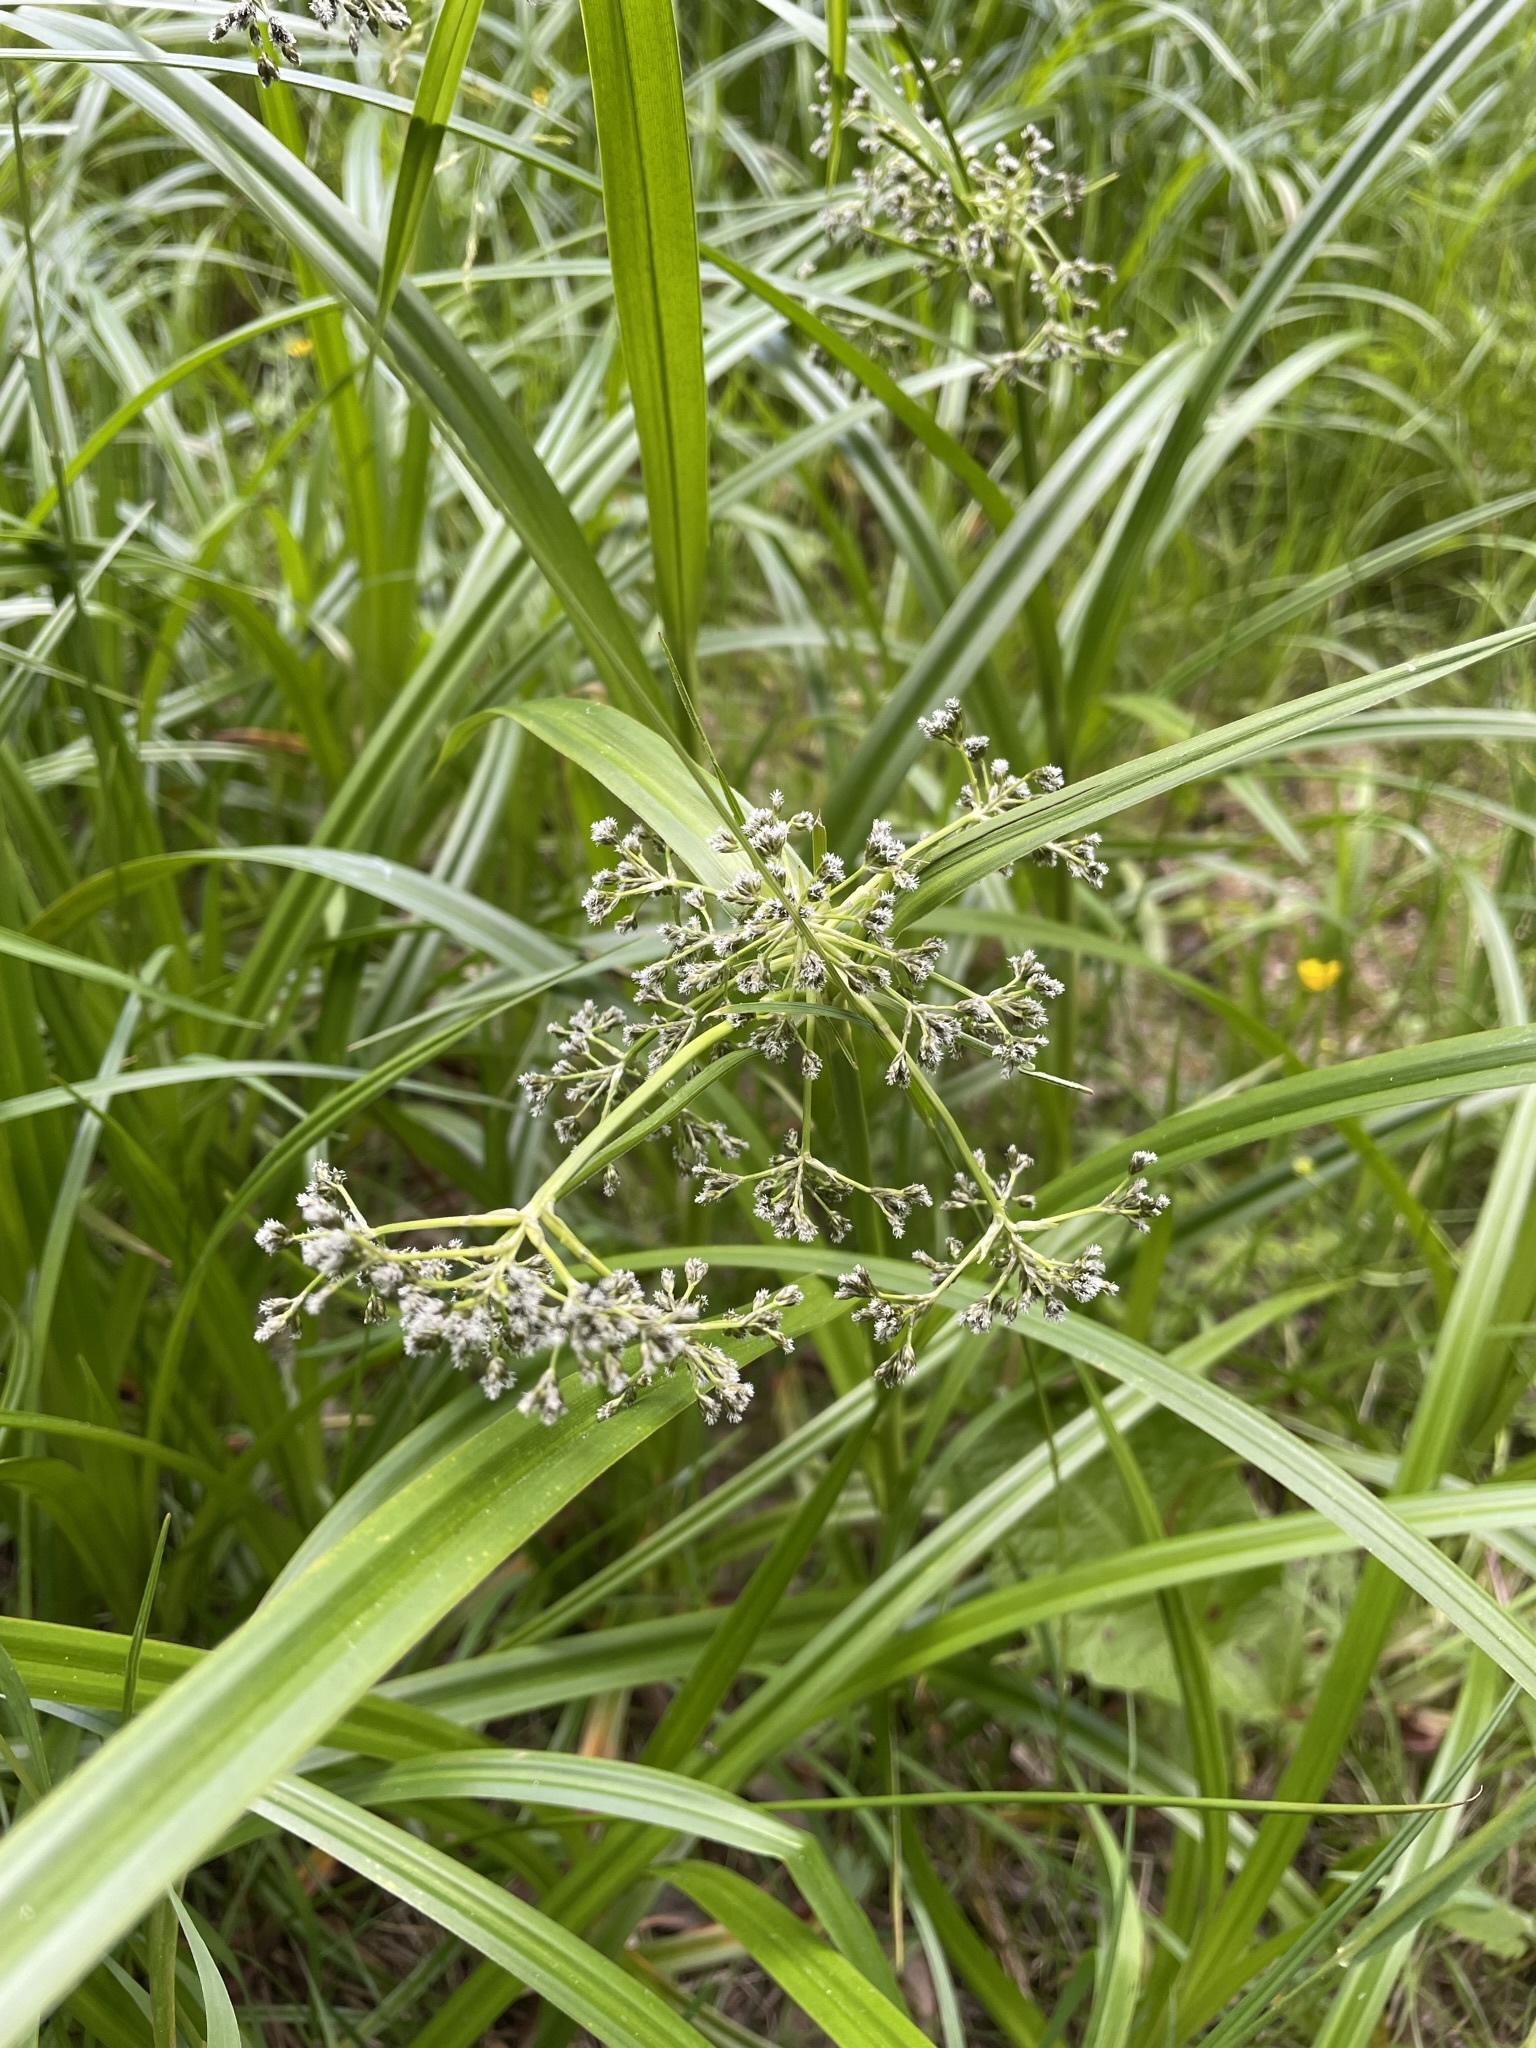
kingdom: Plantae
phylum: Tracheophyta
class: Liliopsida
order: Poales
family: Cyperaceae
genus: Scirpus
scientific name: Scirpus sylvaticus
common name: Wood club-rush
